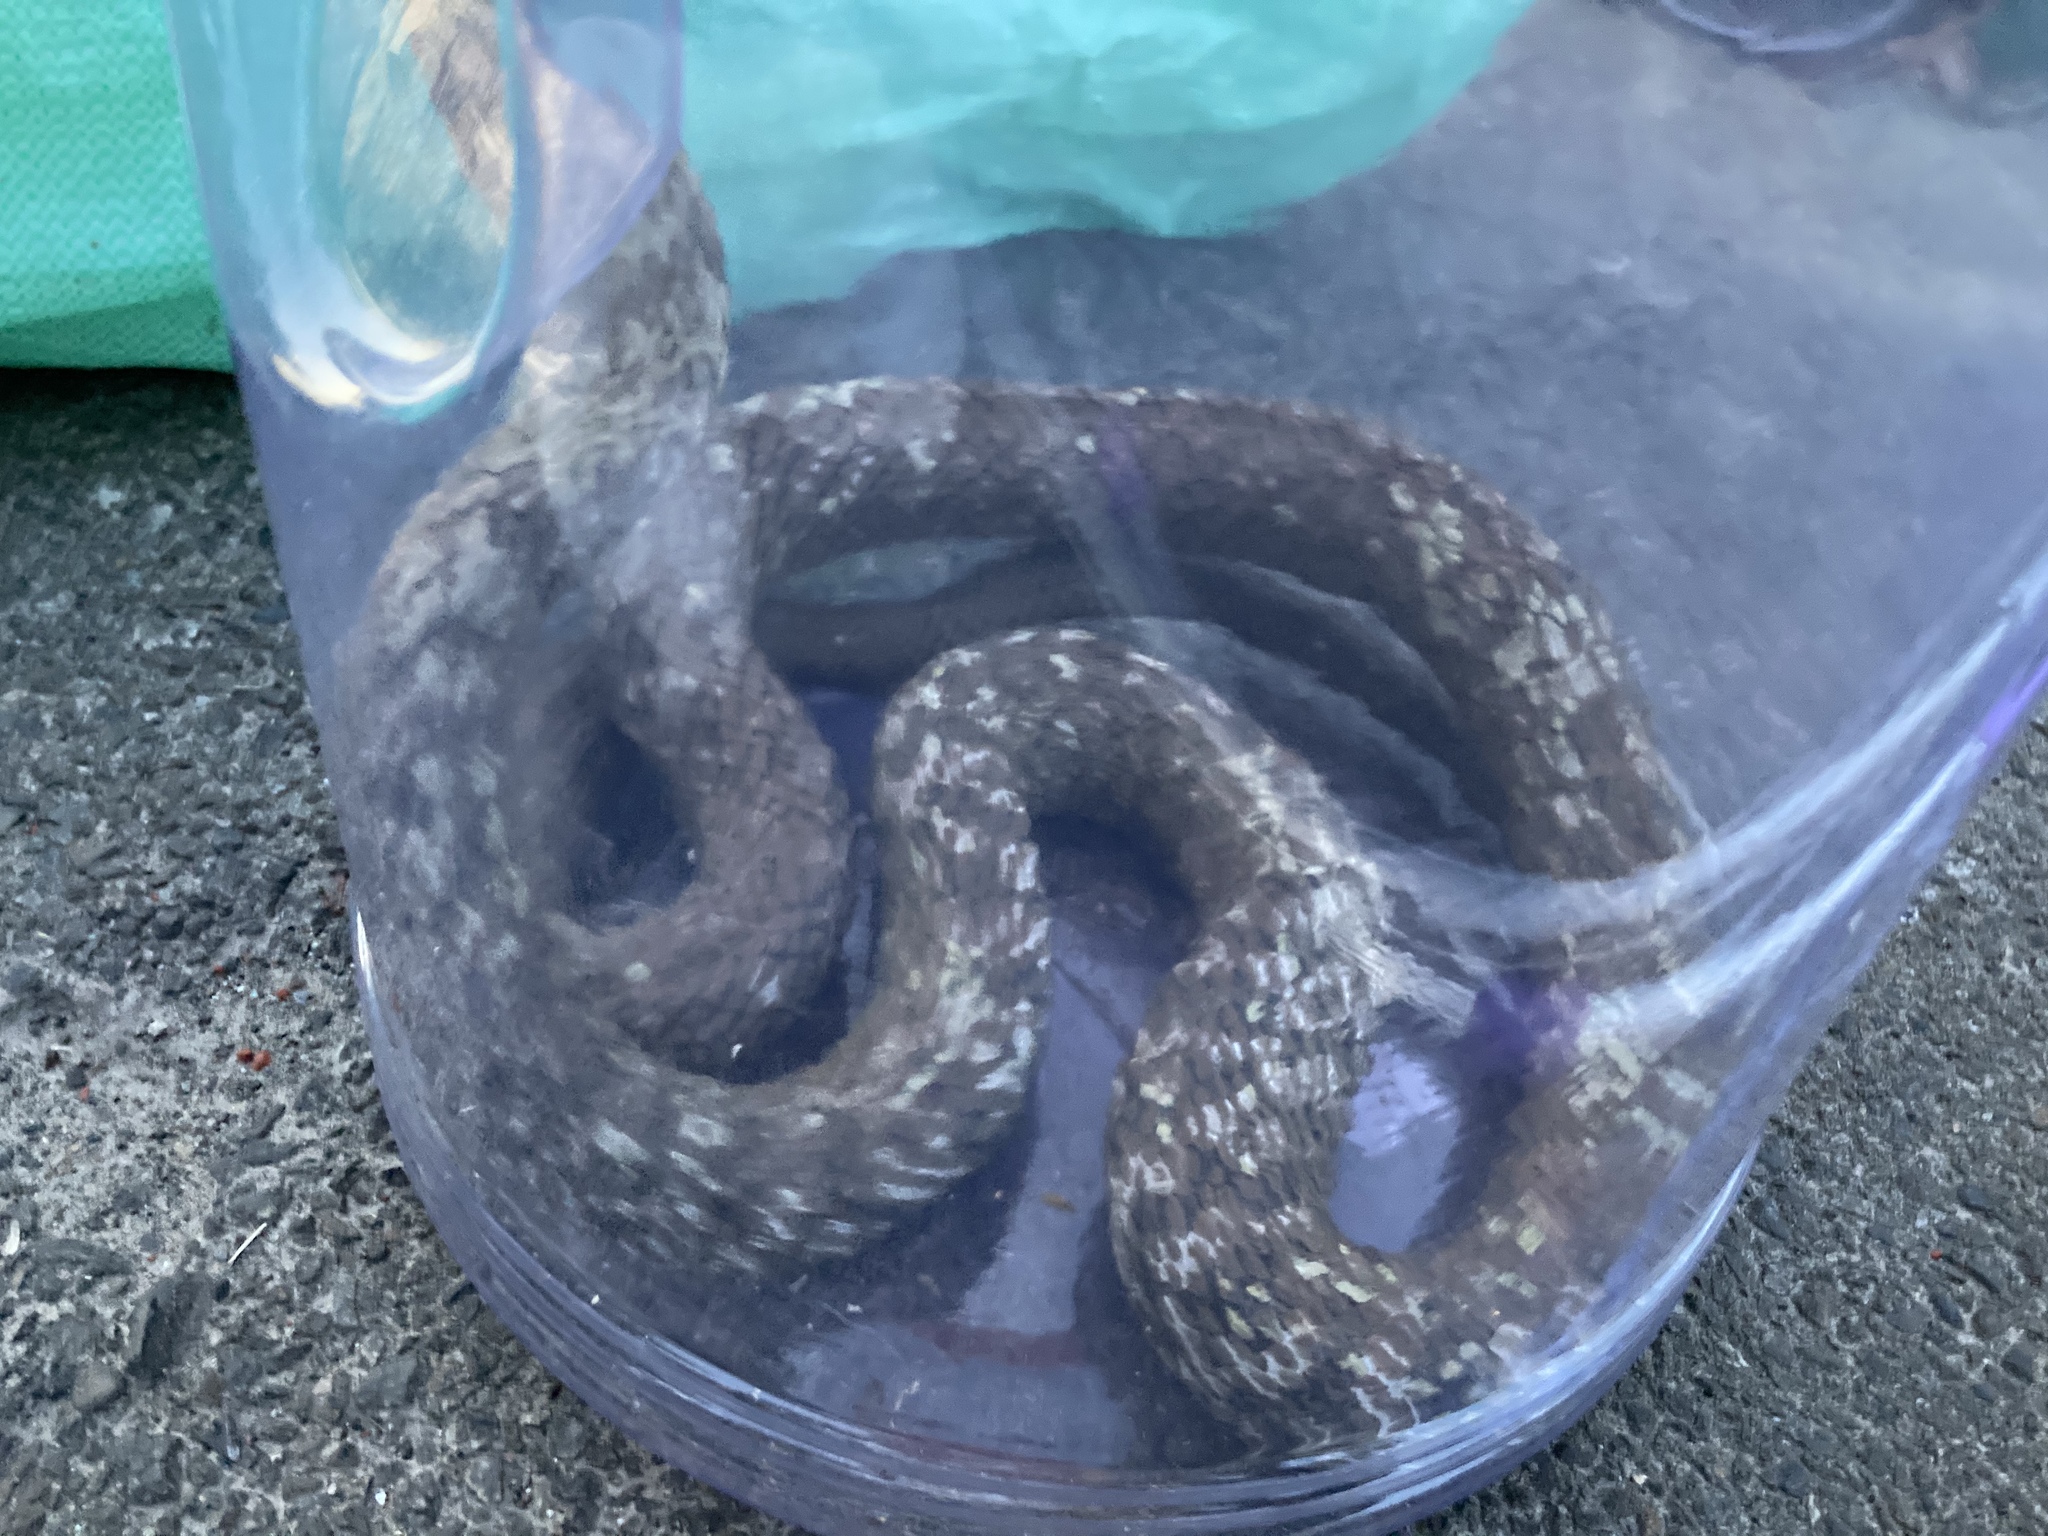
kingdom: Animalia
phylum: Chordata
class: Squamata
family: Colubridae
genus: Elaphe
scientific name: Elaphe carinata
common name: Taiwan stink snake
